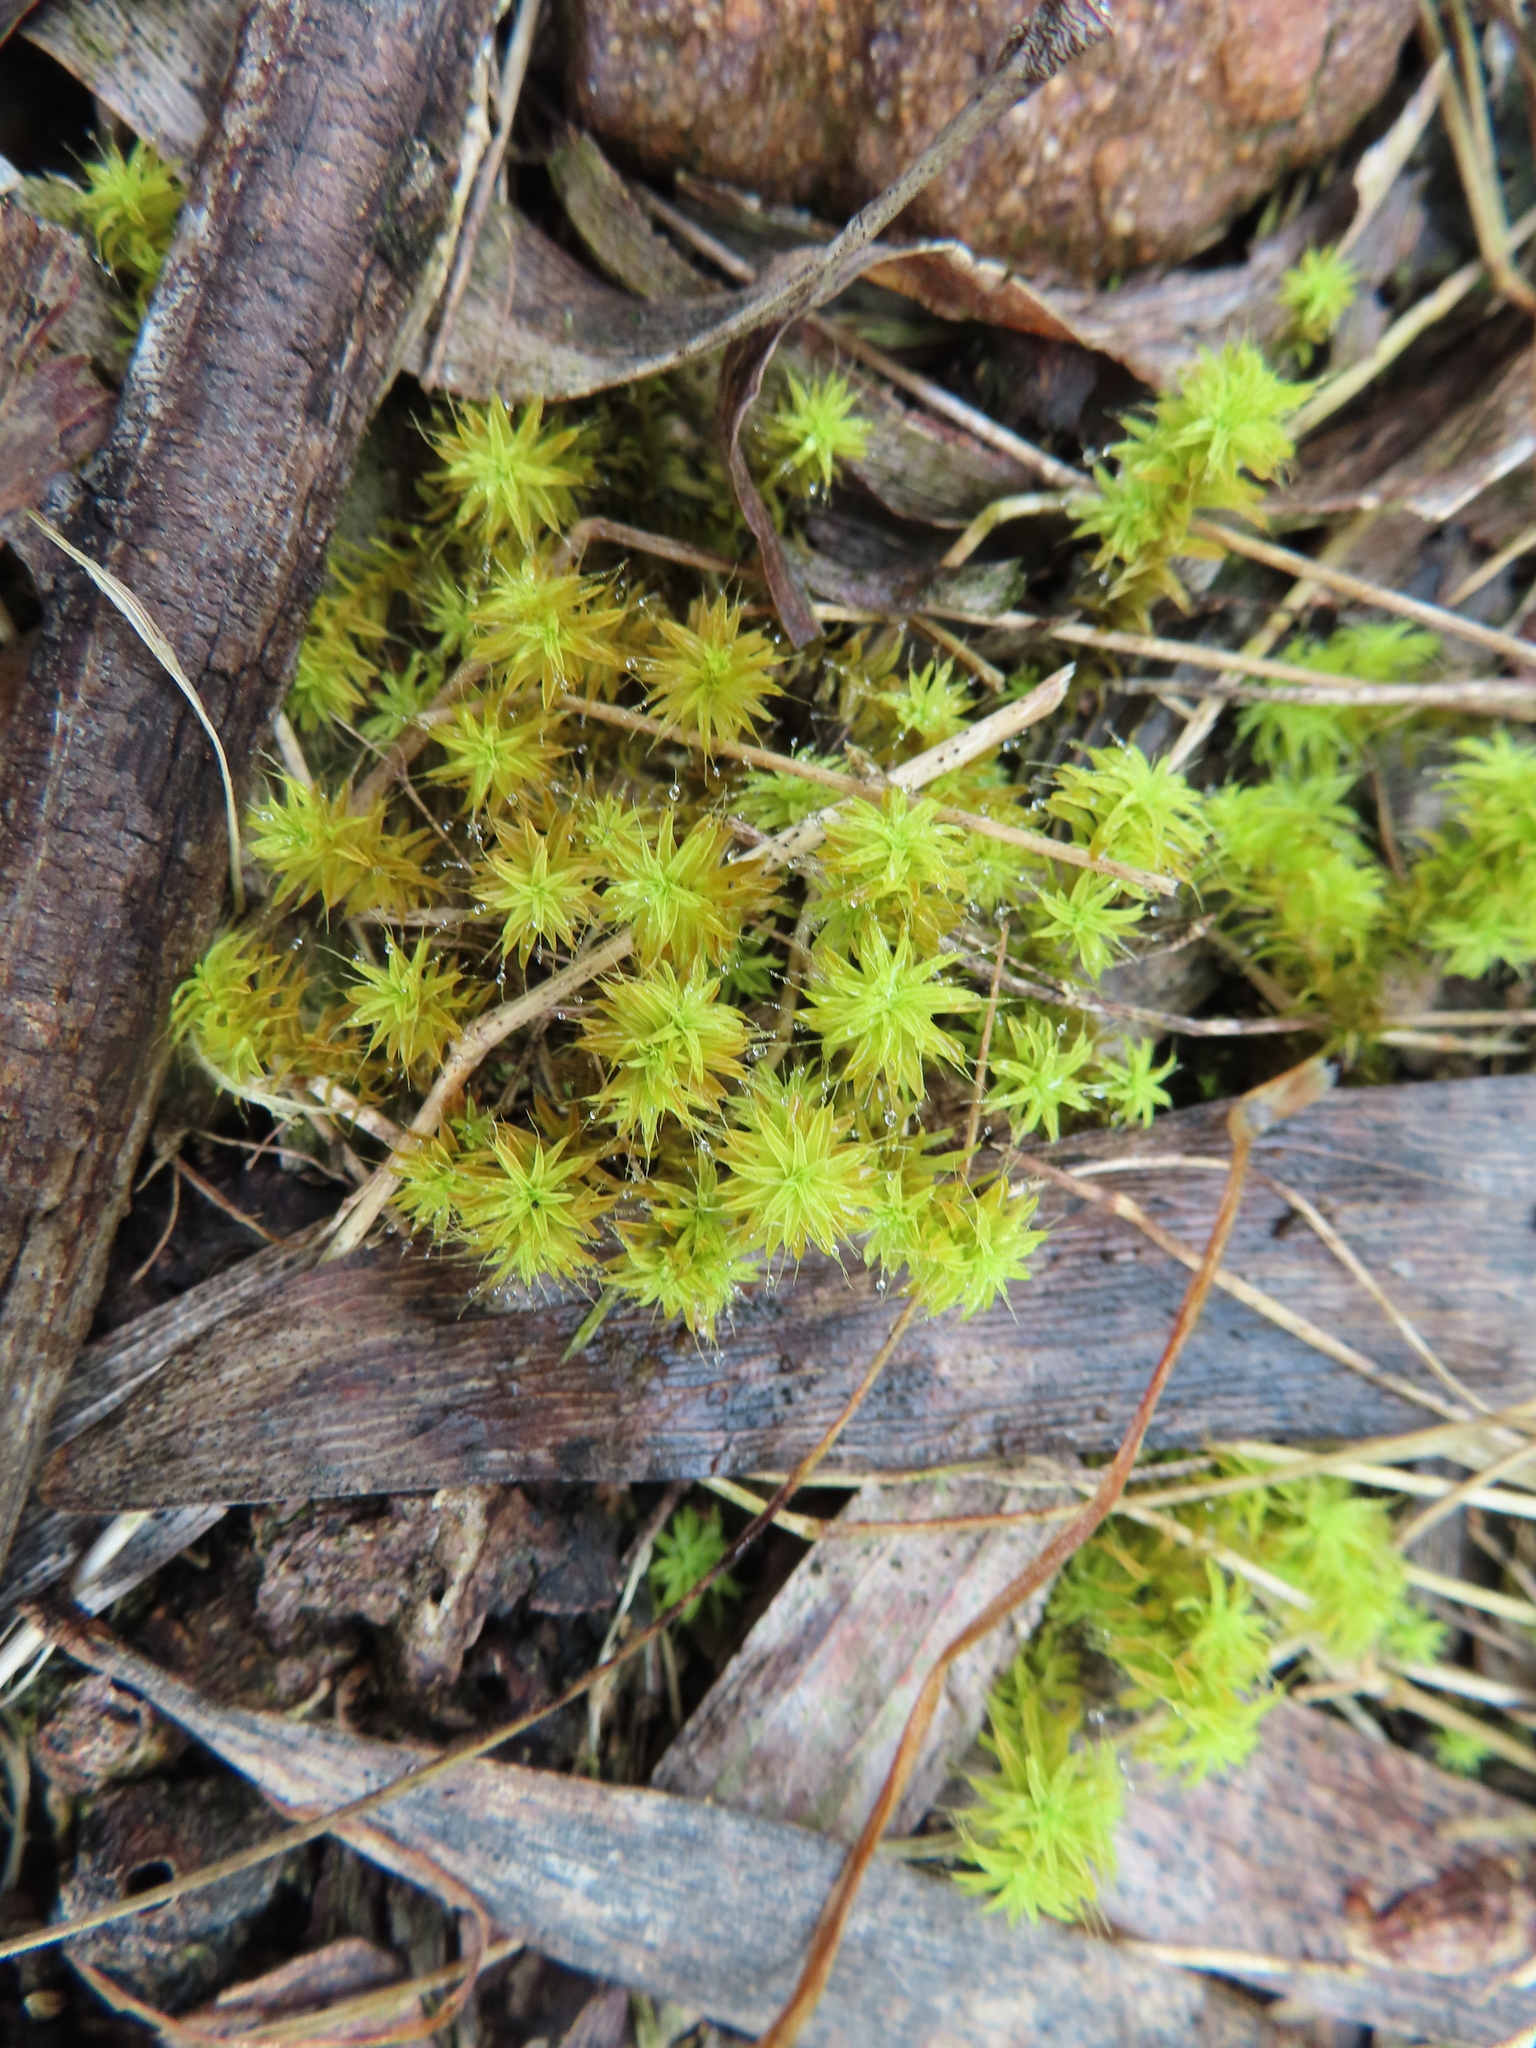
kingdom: Plantae
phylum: Bryophyta
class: Bryopsida
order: Pottiales
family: Pottiaceae
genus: Pseudocrossidium
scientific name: Pseudocrossidium crinitum
